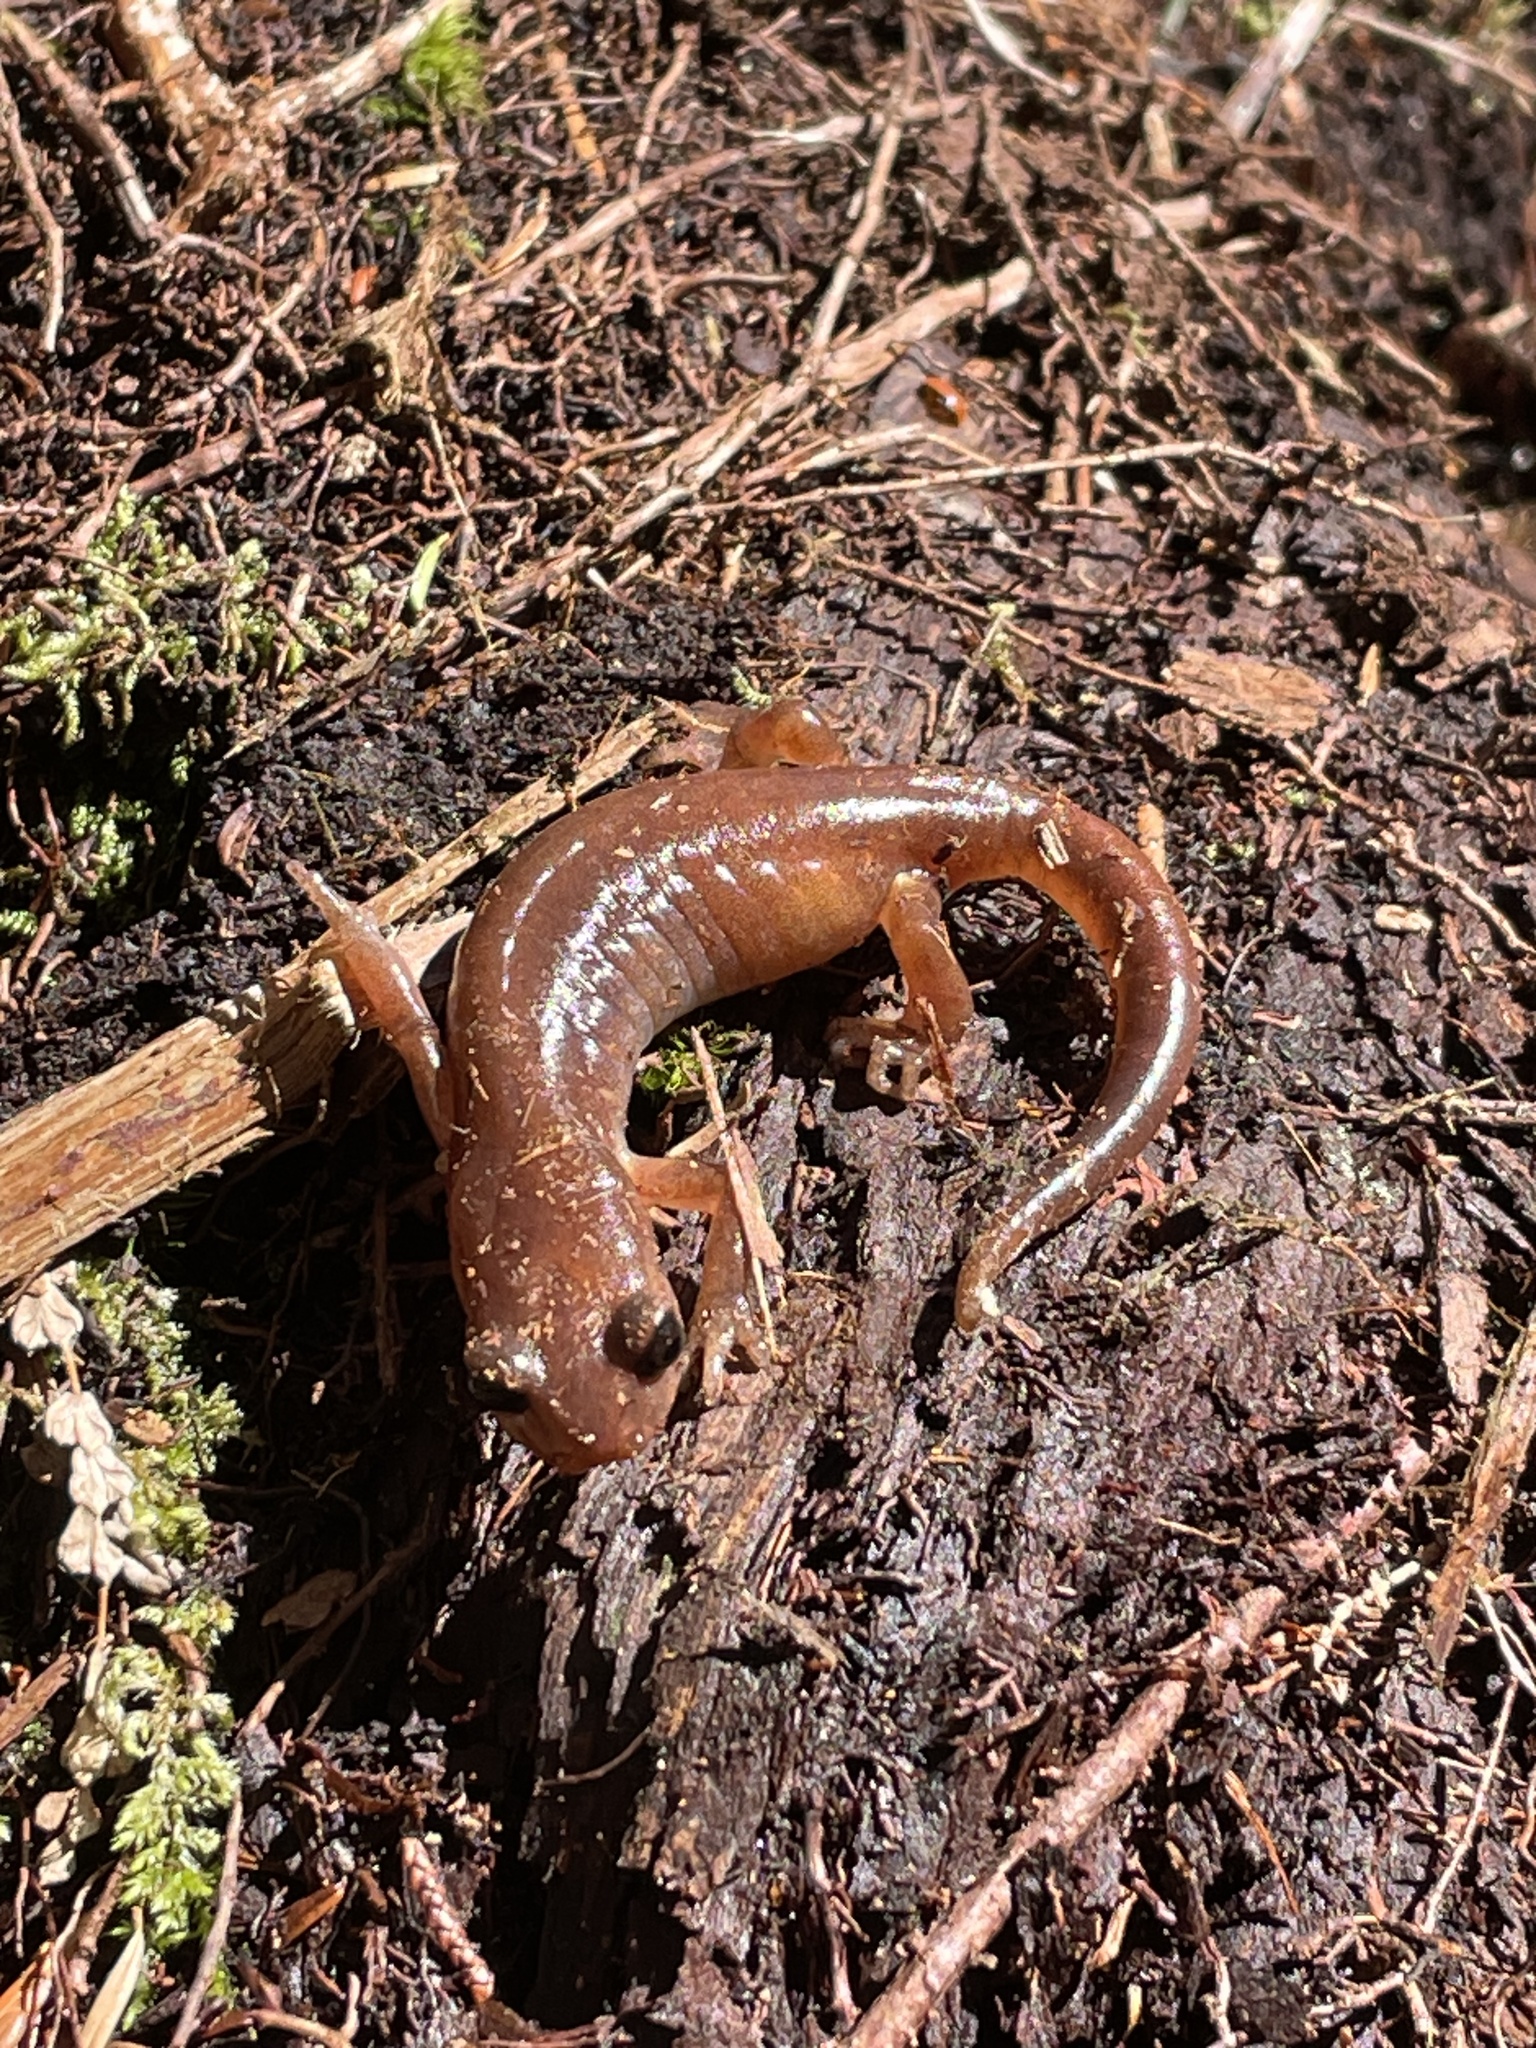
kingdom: Animalia
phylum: Chordata
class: Amphibia
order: Caudata
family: Plethodontidae
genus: Ensatina
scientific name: Ensatina eschscholtzii
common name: Ensatina
